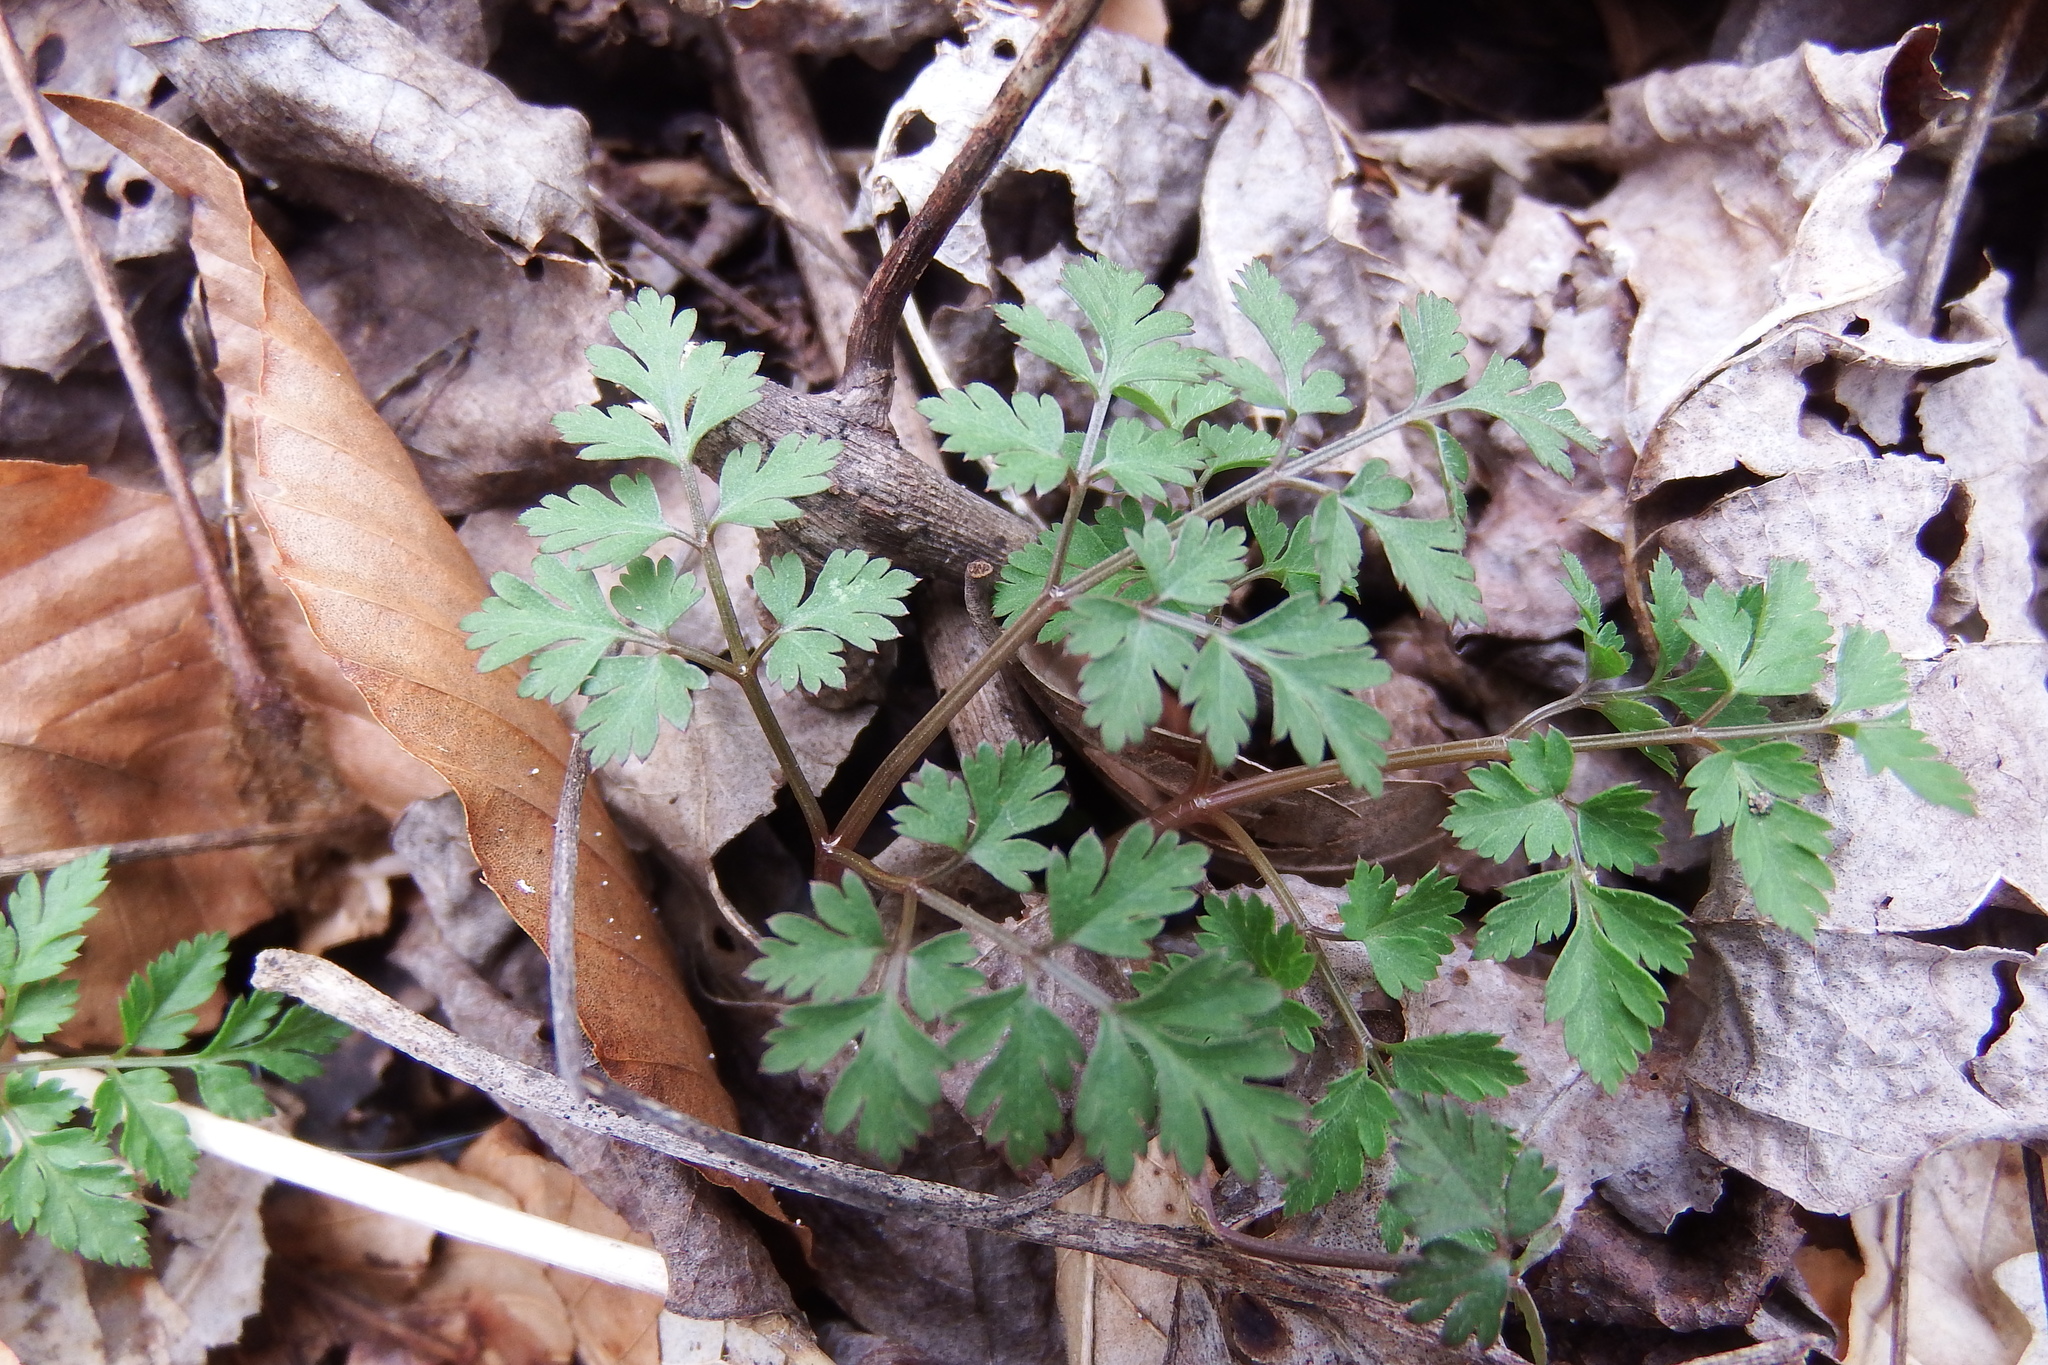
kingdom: Plantae
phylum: Tracheophyta
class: Magnoliopsida
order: Apiales
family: Apiaceae
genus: Osmorhiza
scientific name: Osmorhiza longistylis
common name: Smooth sweet cicely
